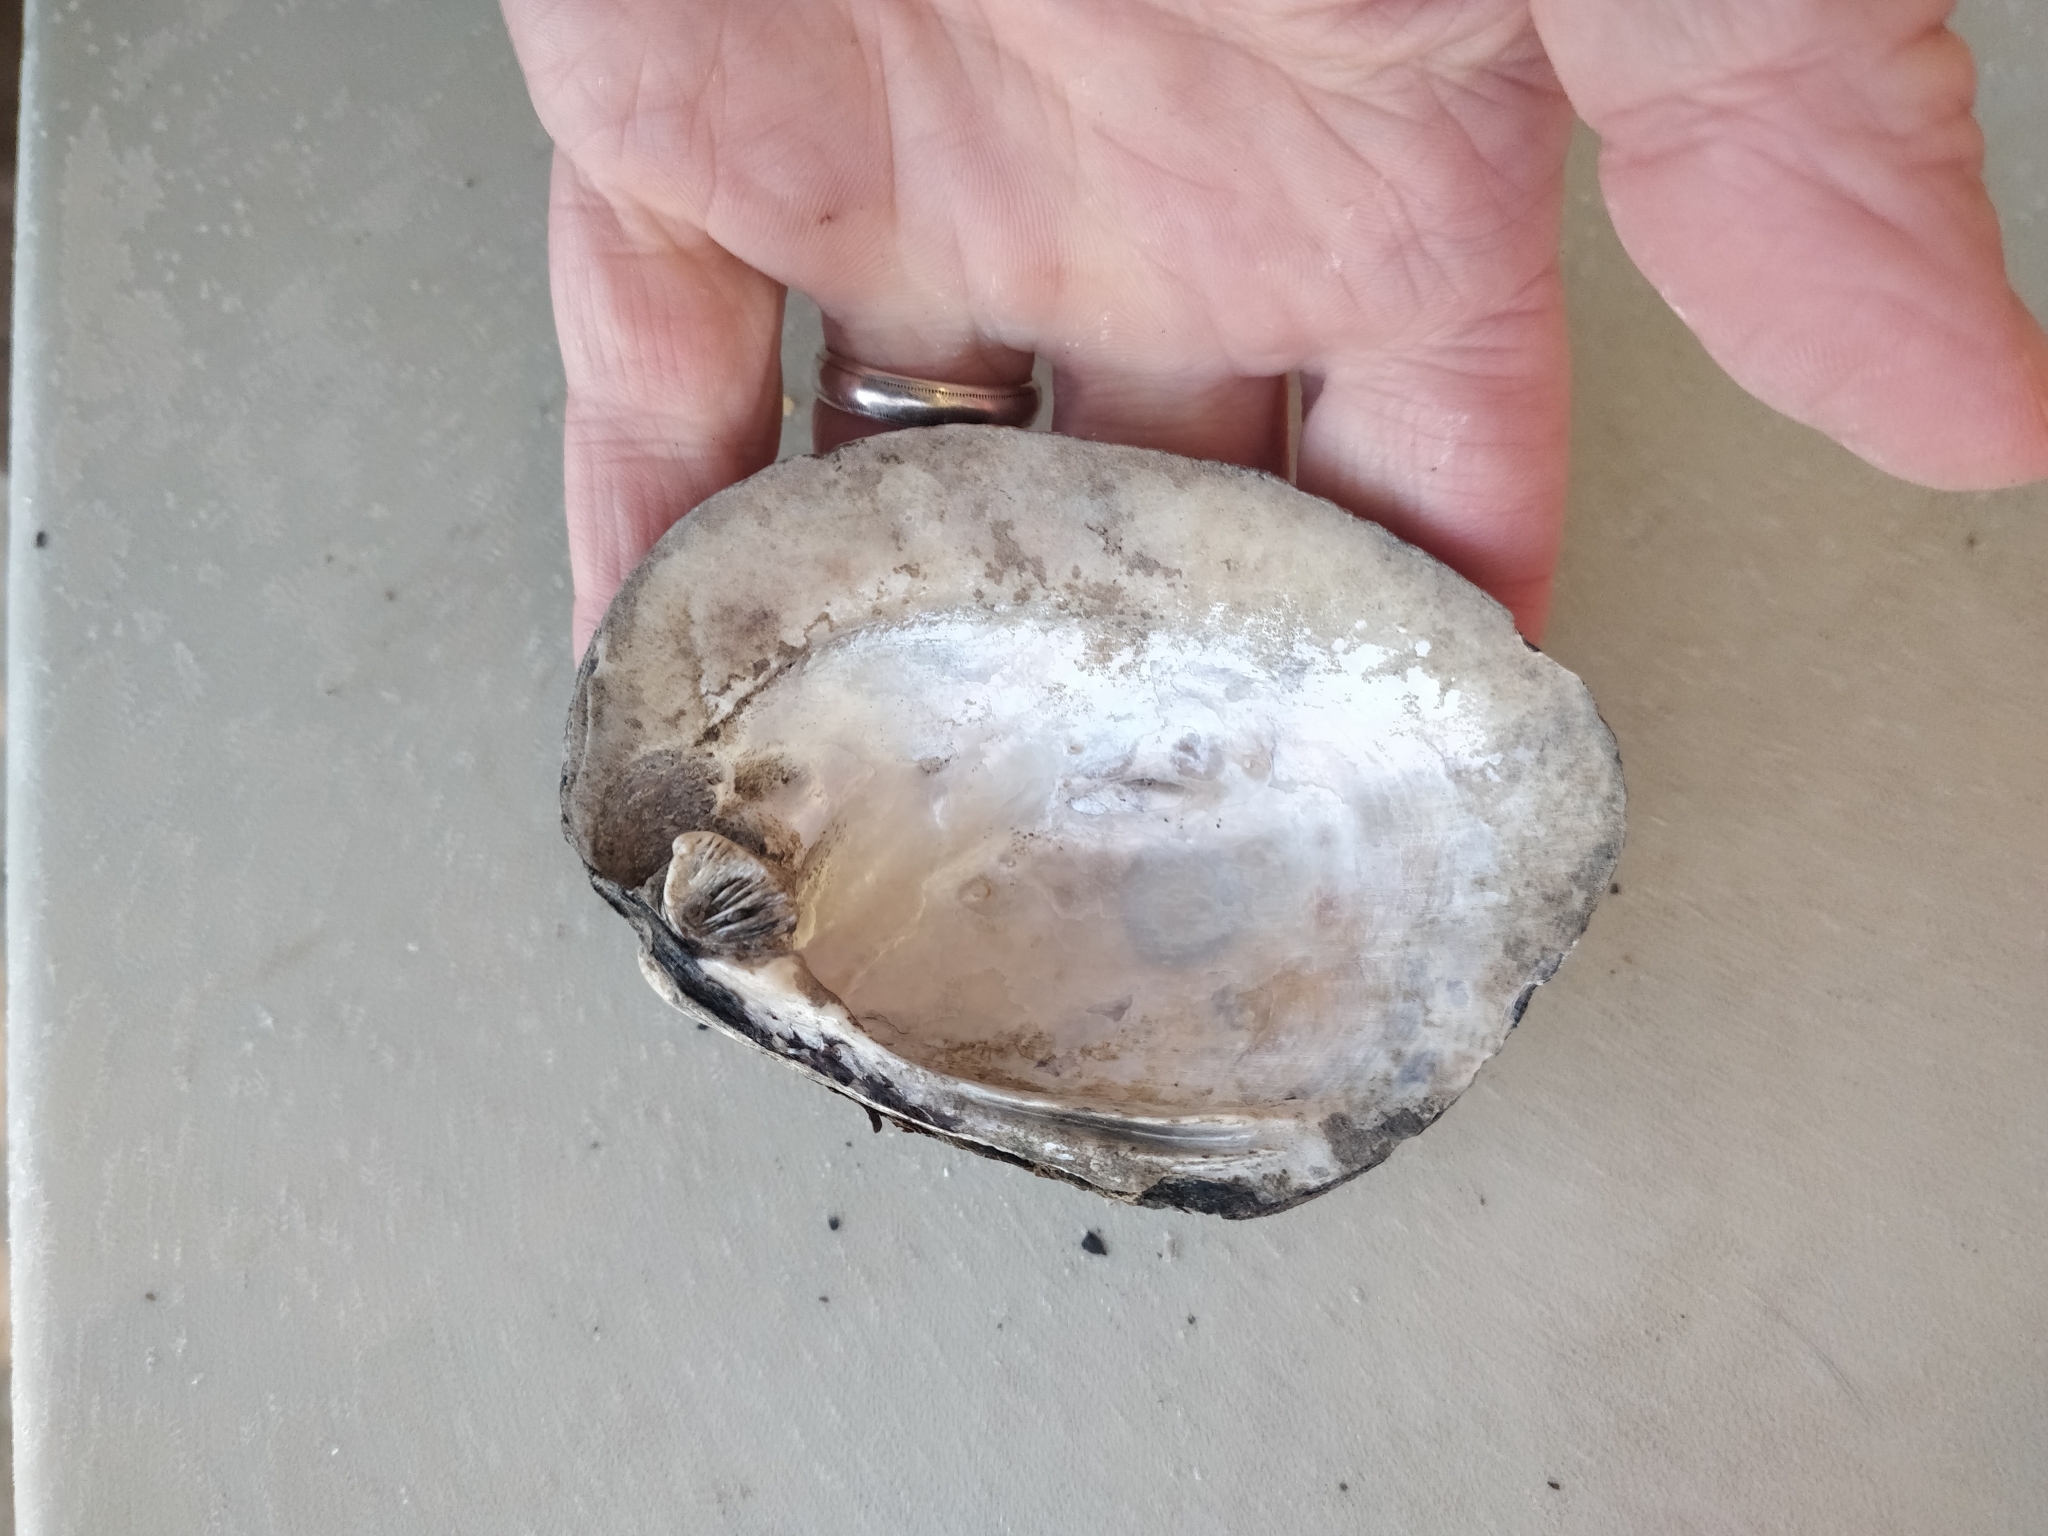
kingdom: Animalia
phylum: Mollusca
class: Bivalvia
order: Unionida
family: Unionidae
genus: Amblema
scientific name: Amblema plicata
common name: Threeridge
